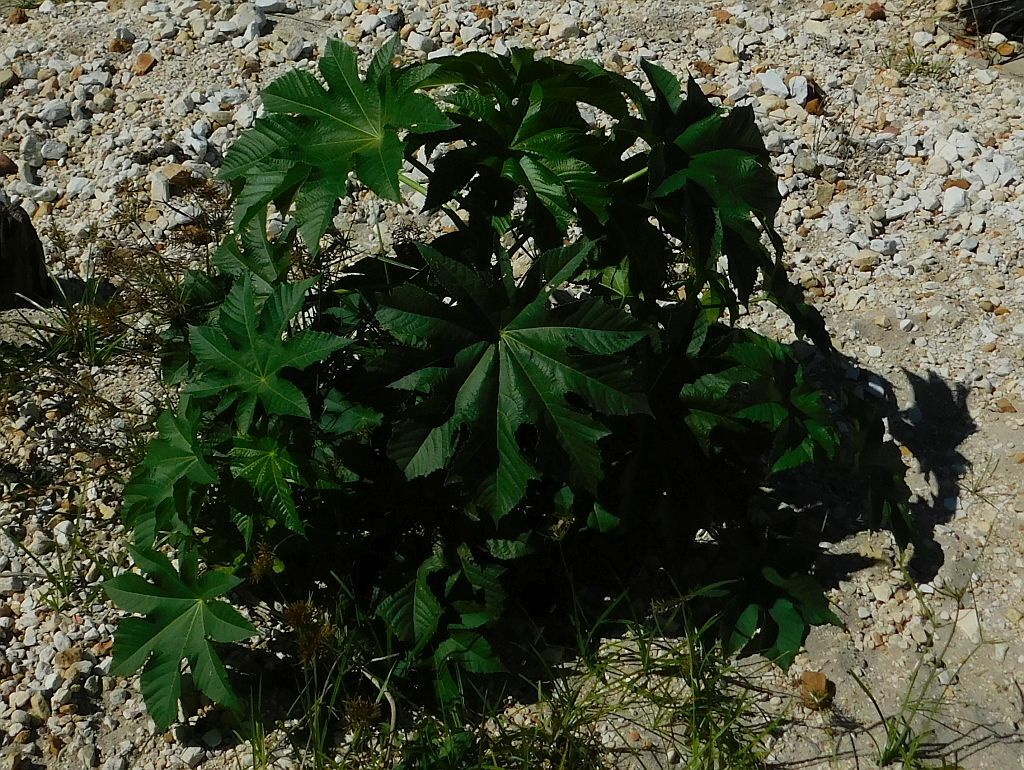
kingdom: Plantae
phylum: Tracheophyta
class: Magnoliopsida
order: Malpighiales
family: Euphorbiaceae
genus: Ricinus
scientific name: Ricinus communis
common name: Castor-oil-plant
